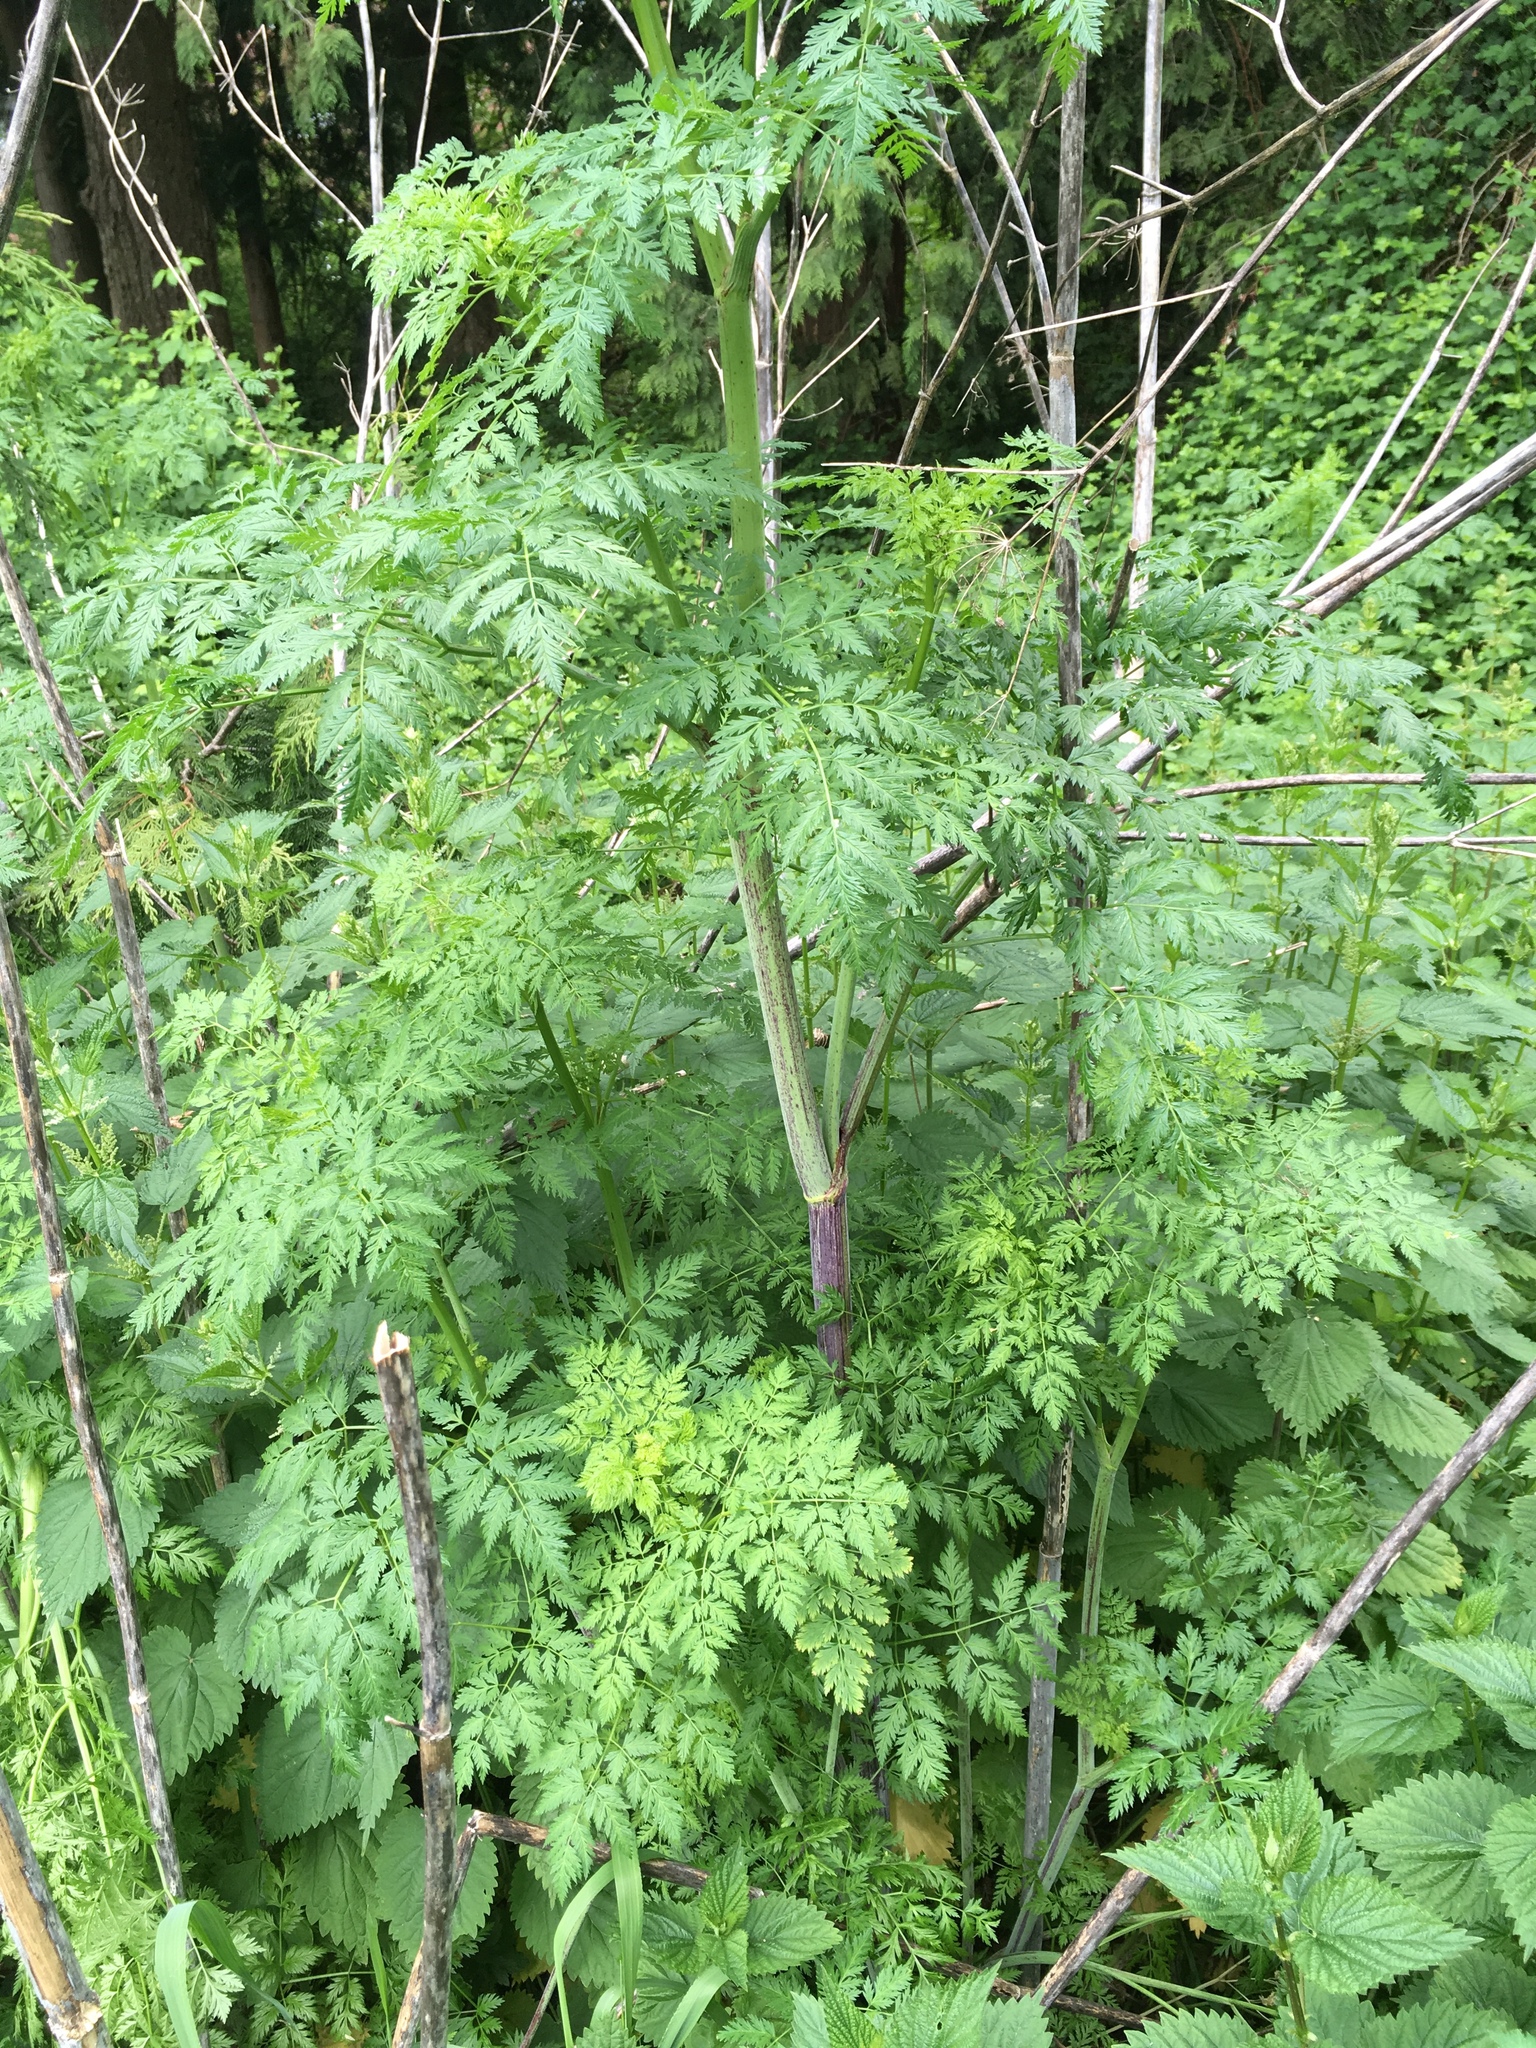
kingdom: Plantae
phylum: Tracheophyta
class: Magnoliopsida
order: Apiales
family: Apiaceae
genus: Conium
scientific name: Conium maculatum
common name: Hemlock
